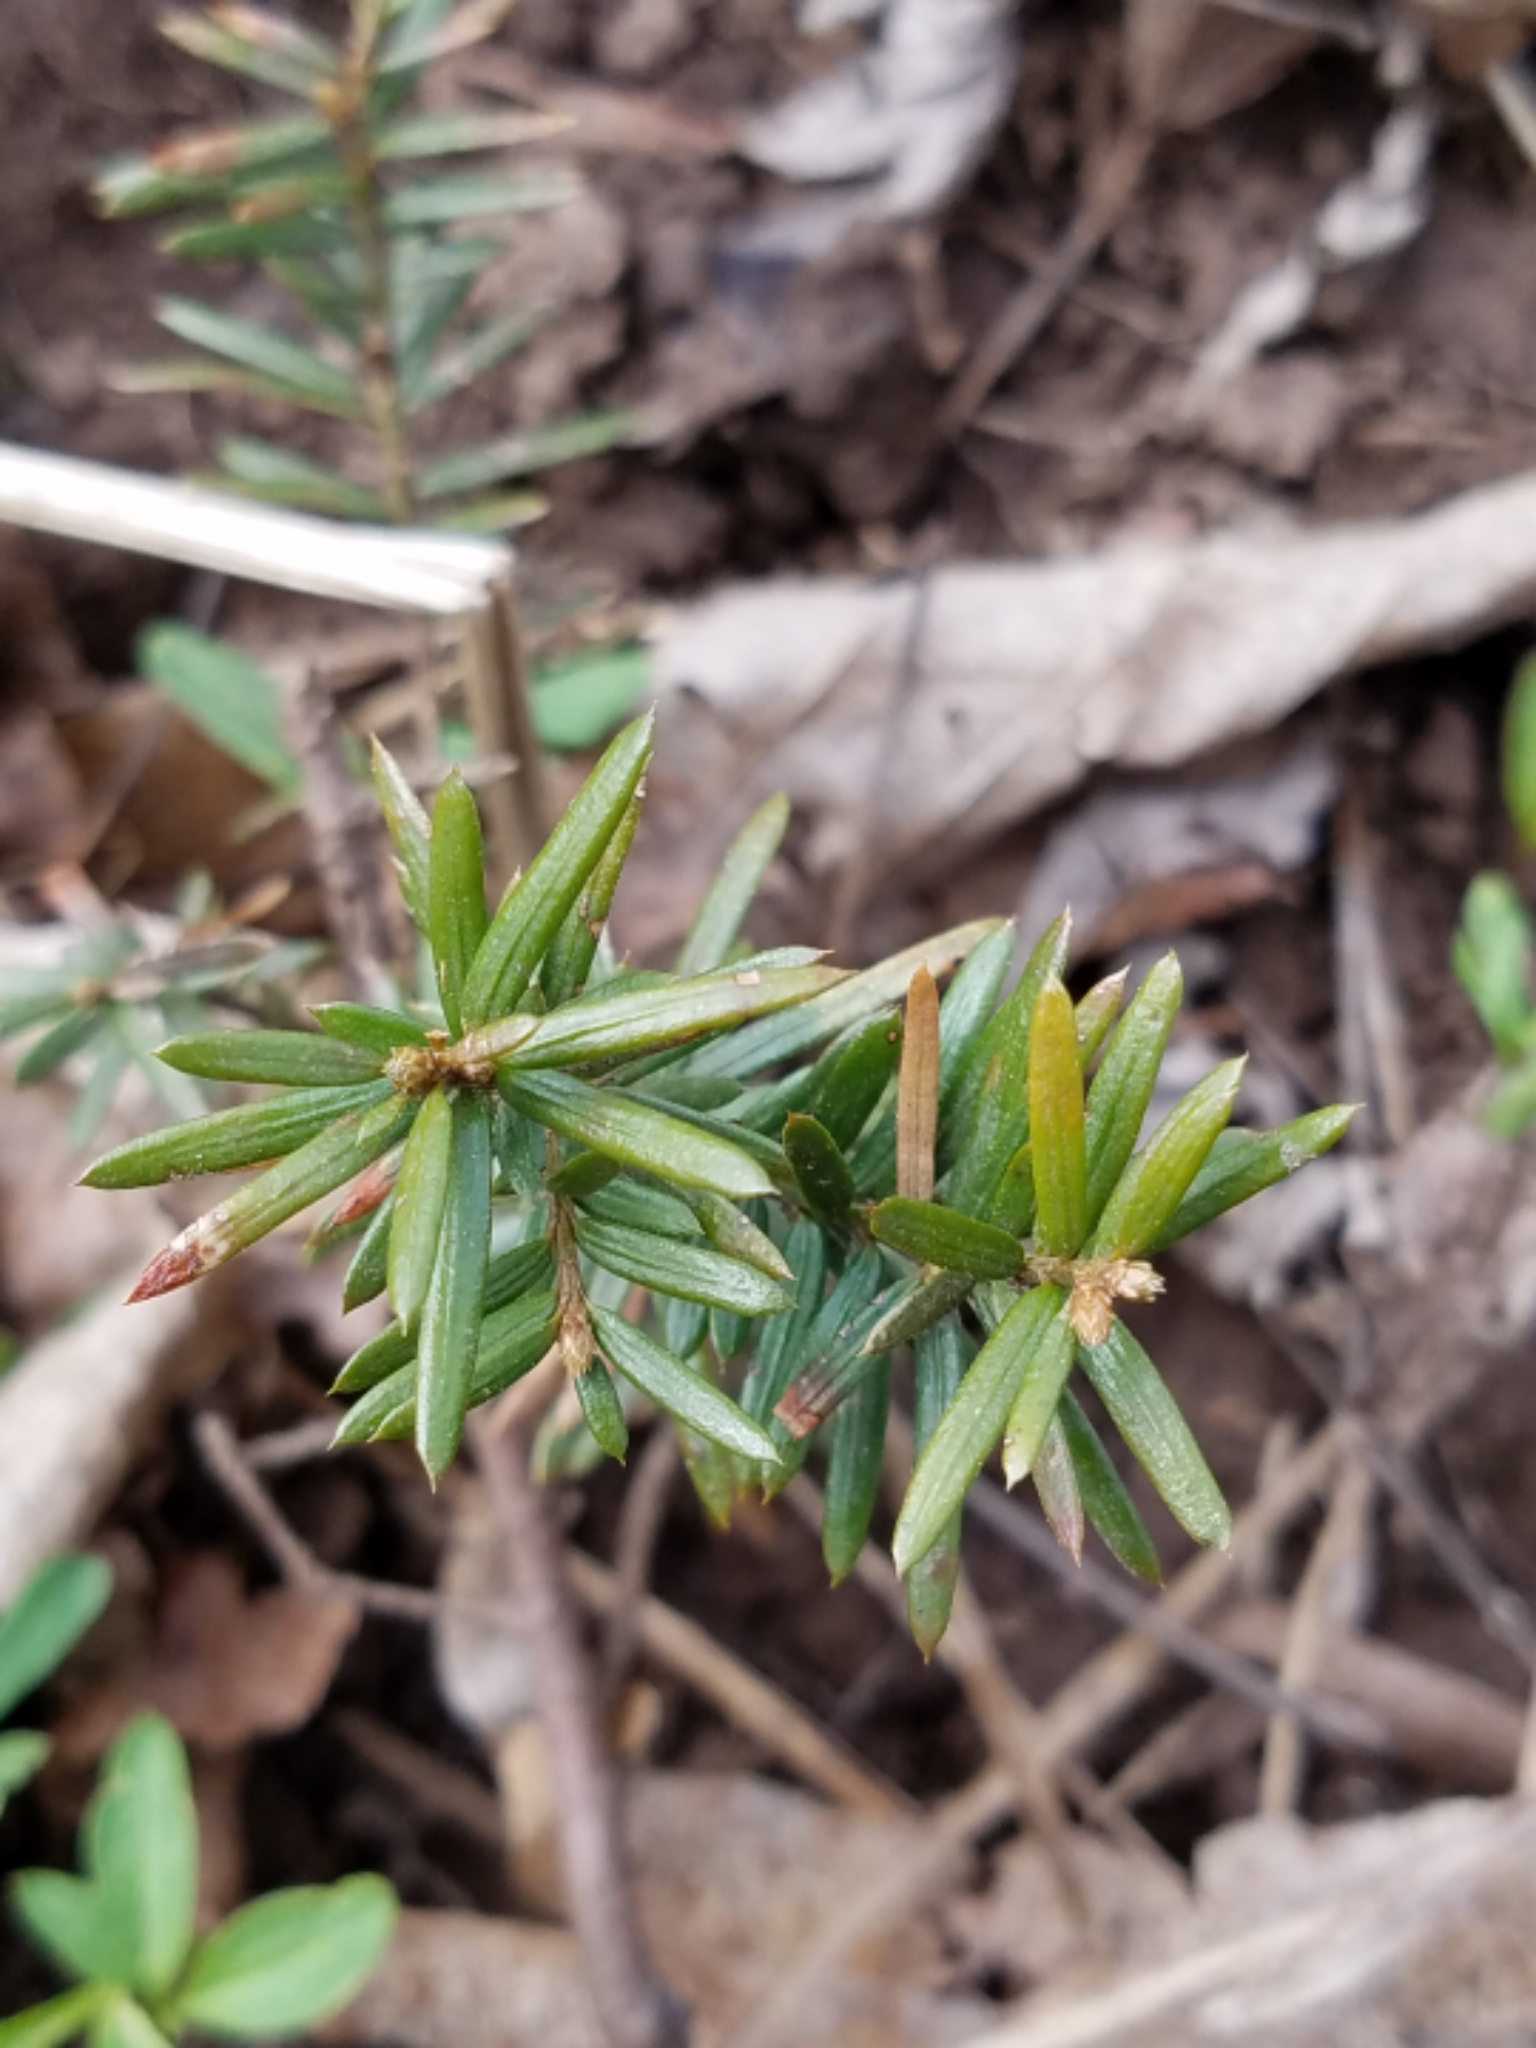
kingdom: Plantae
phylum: Tracheophyta
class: Pinopsida
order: Pinales
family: Taxaceae
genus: Taxus
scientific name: Taxus canadensis
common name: American yew
